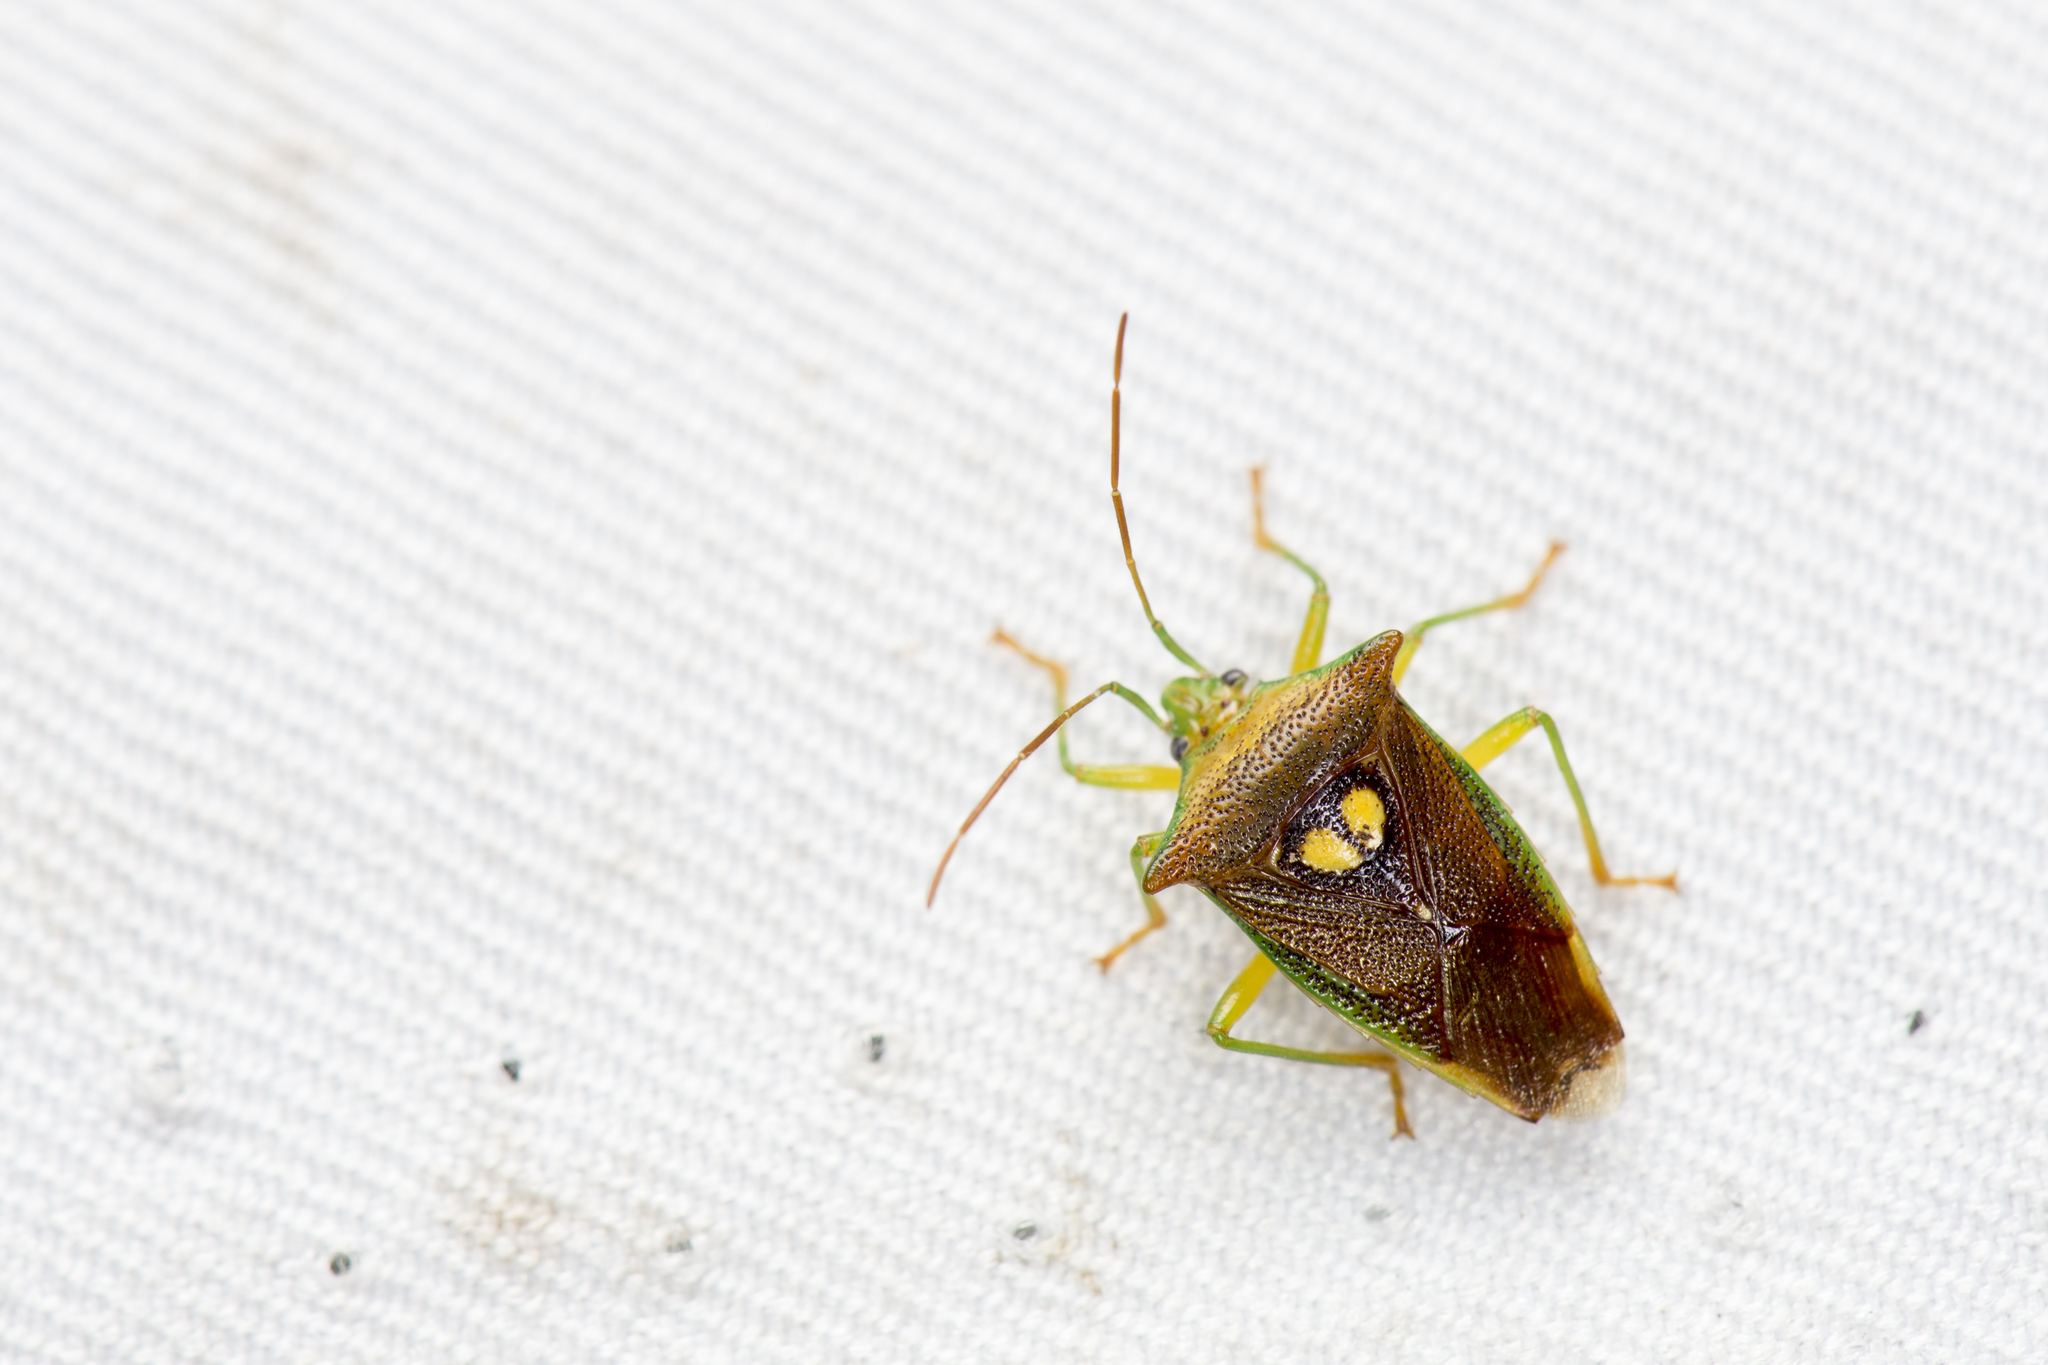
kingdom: Animalia
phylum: Arthropoda
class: Insecta
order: Hemiptera
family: Acanthosomatidae
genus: Sastragala
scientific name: Sastragala esakii
